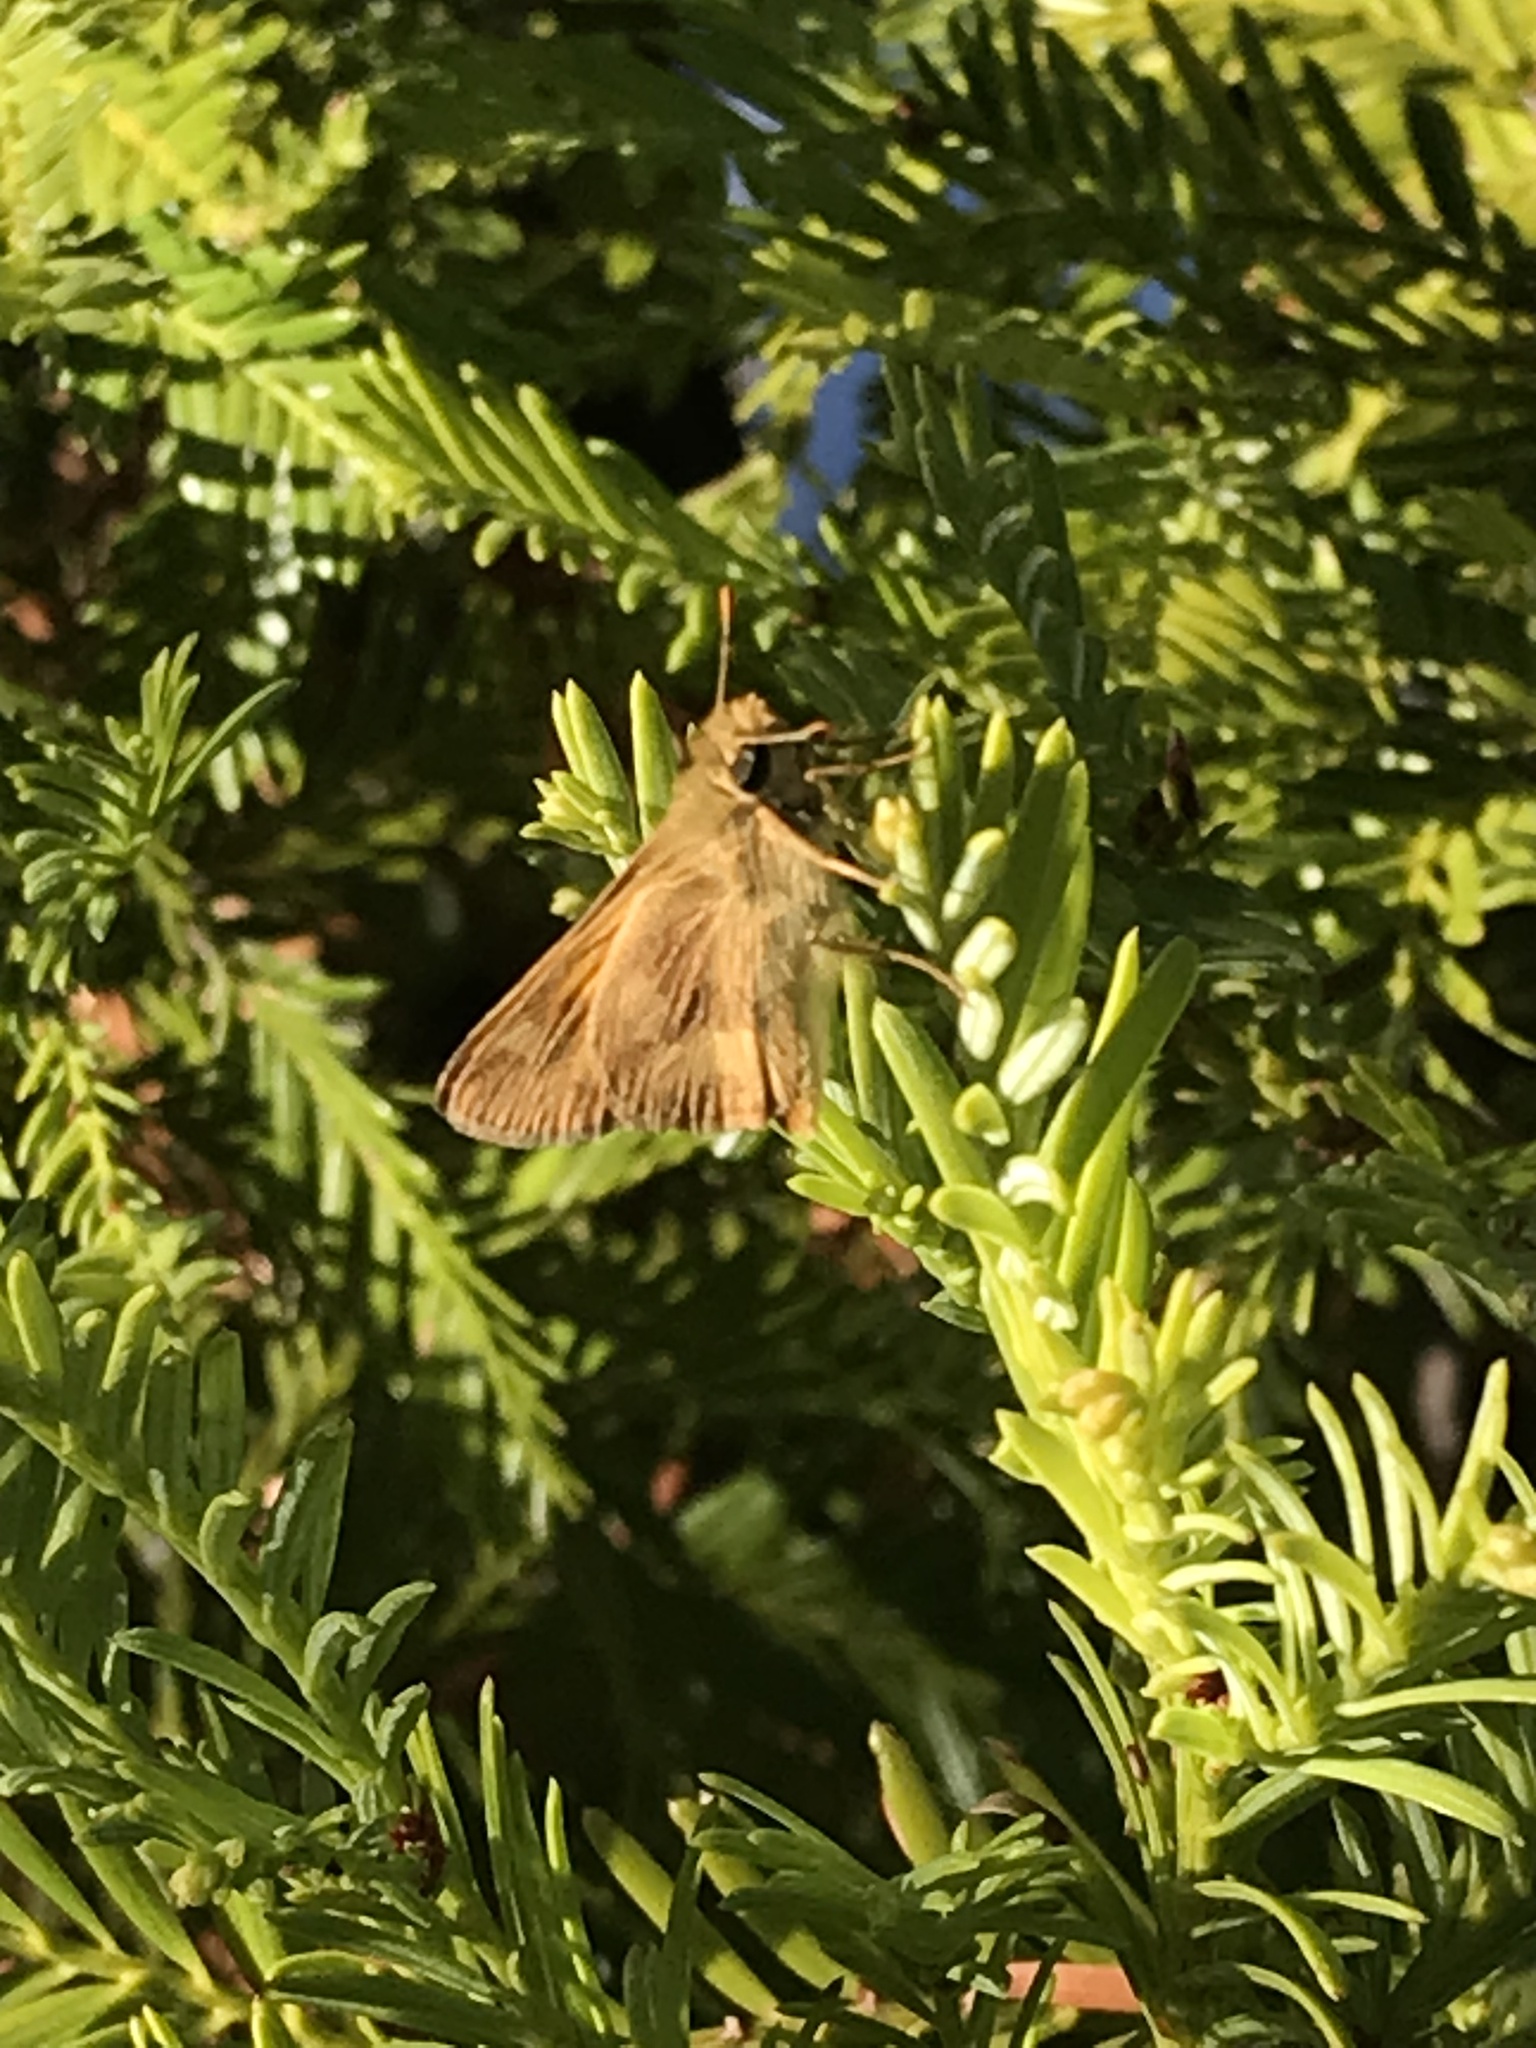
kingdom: Animalia
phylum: Arthropoda
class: Insecta
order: Lepidoptera
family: Hesperiidae
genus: Ochlodes
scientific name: Ochlodes sylvanoides
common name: Woodland skipper
